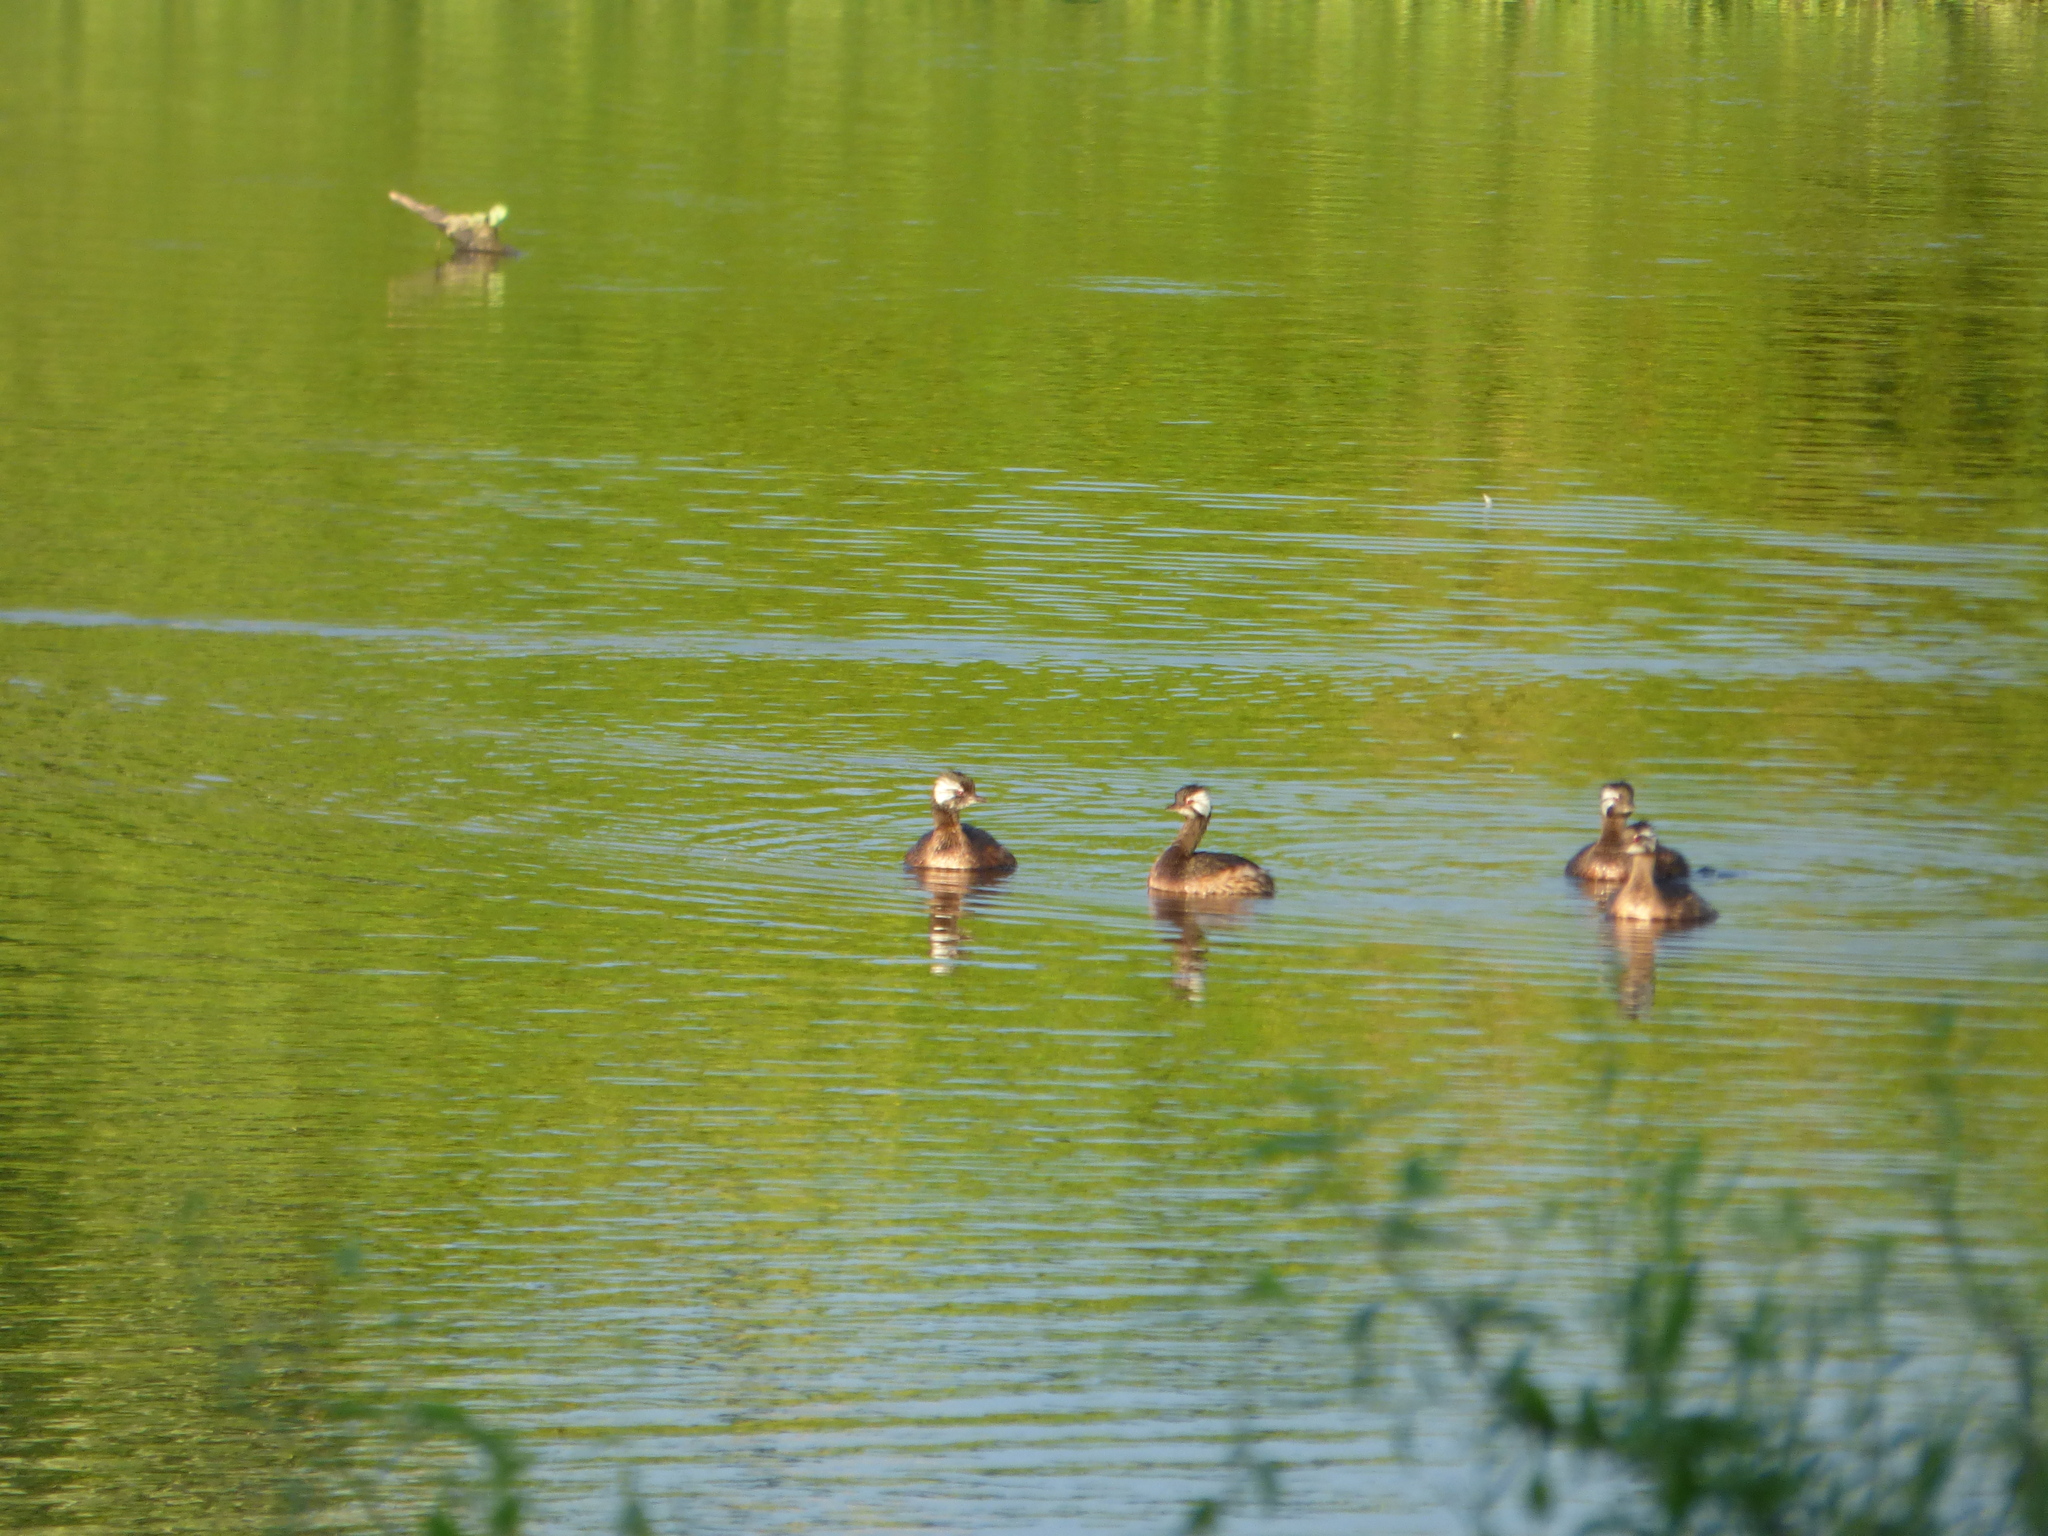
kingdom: Animalia
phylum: Chordata
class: Aves
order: Podicipediformes
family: Podicipedidae
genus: Rollandia
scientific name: Rollandia rolland
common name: White-tufted grebe
